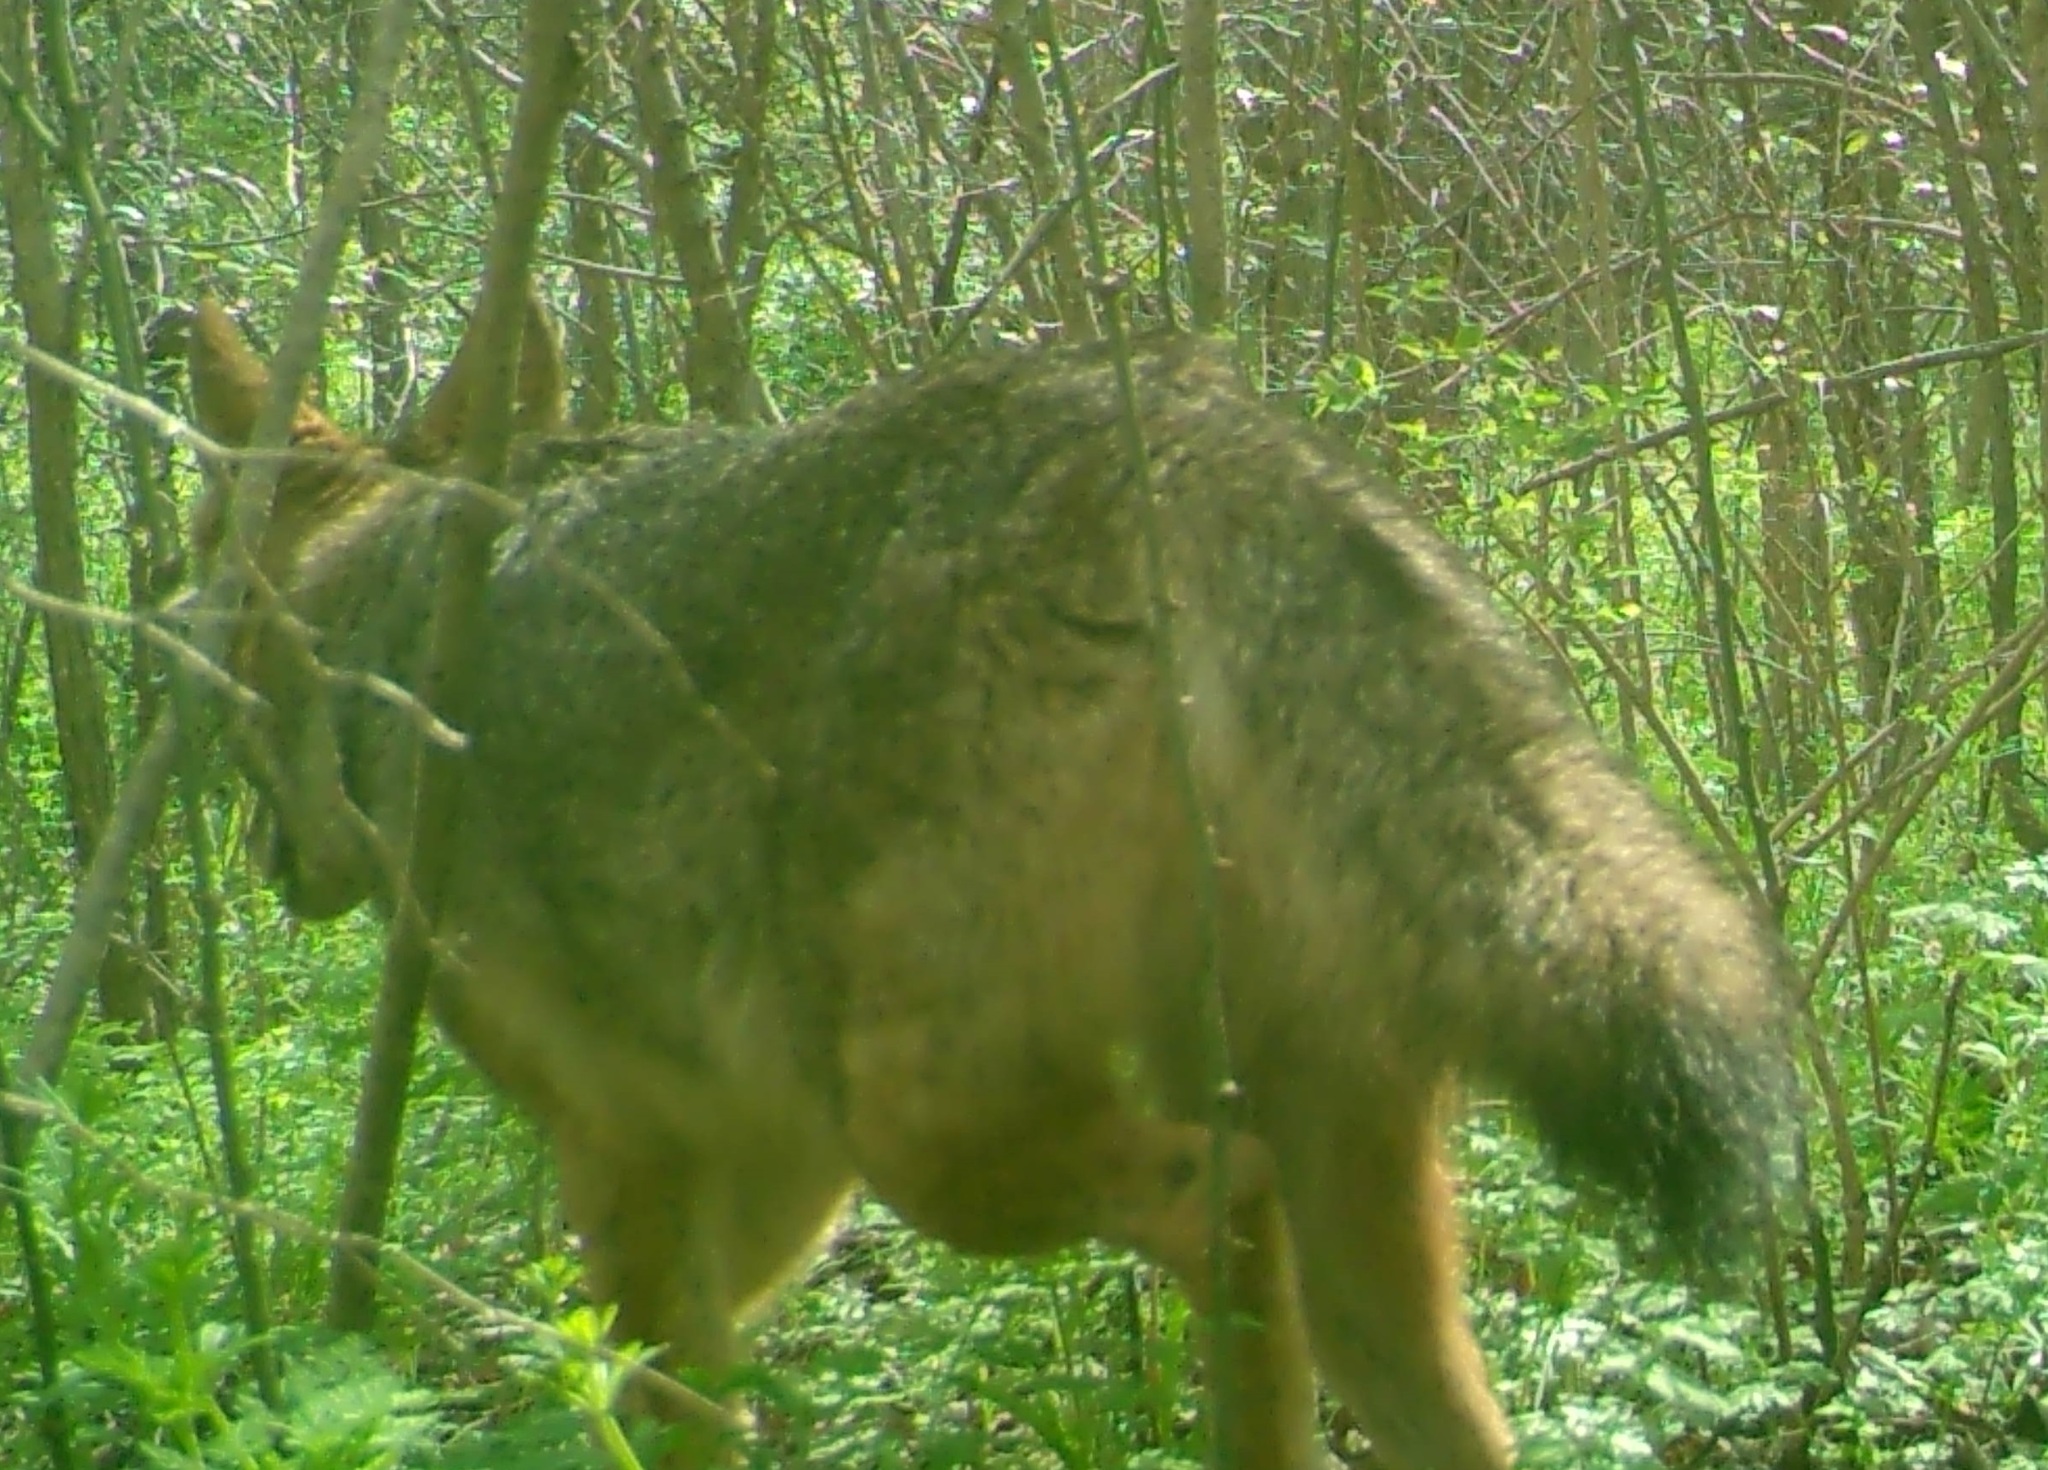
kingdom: Animalia
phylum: Chordata
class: Mammalia
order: Carnivora
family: Canidae
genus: Canis
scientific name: Canis latrans
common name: Coyote
